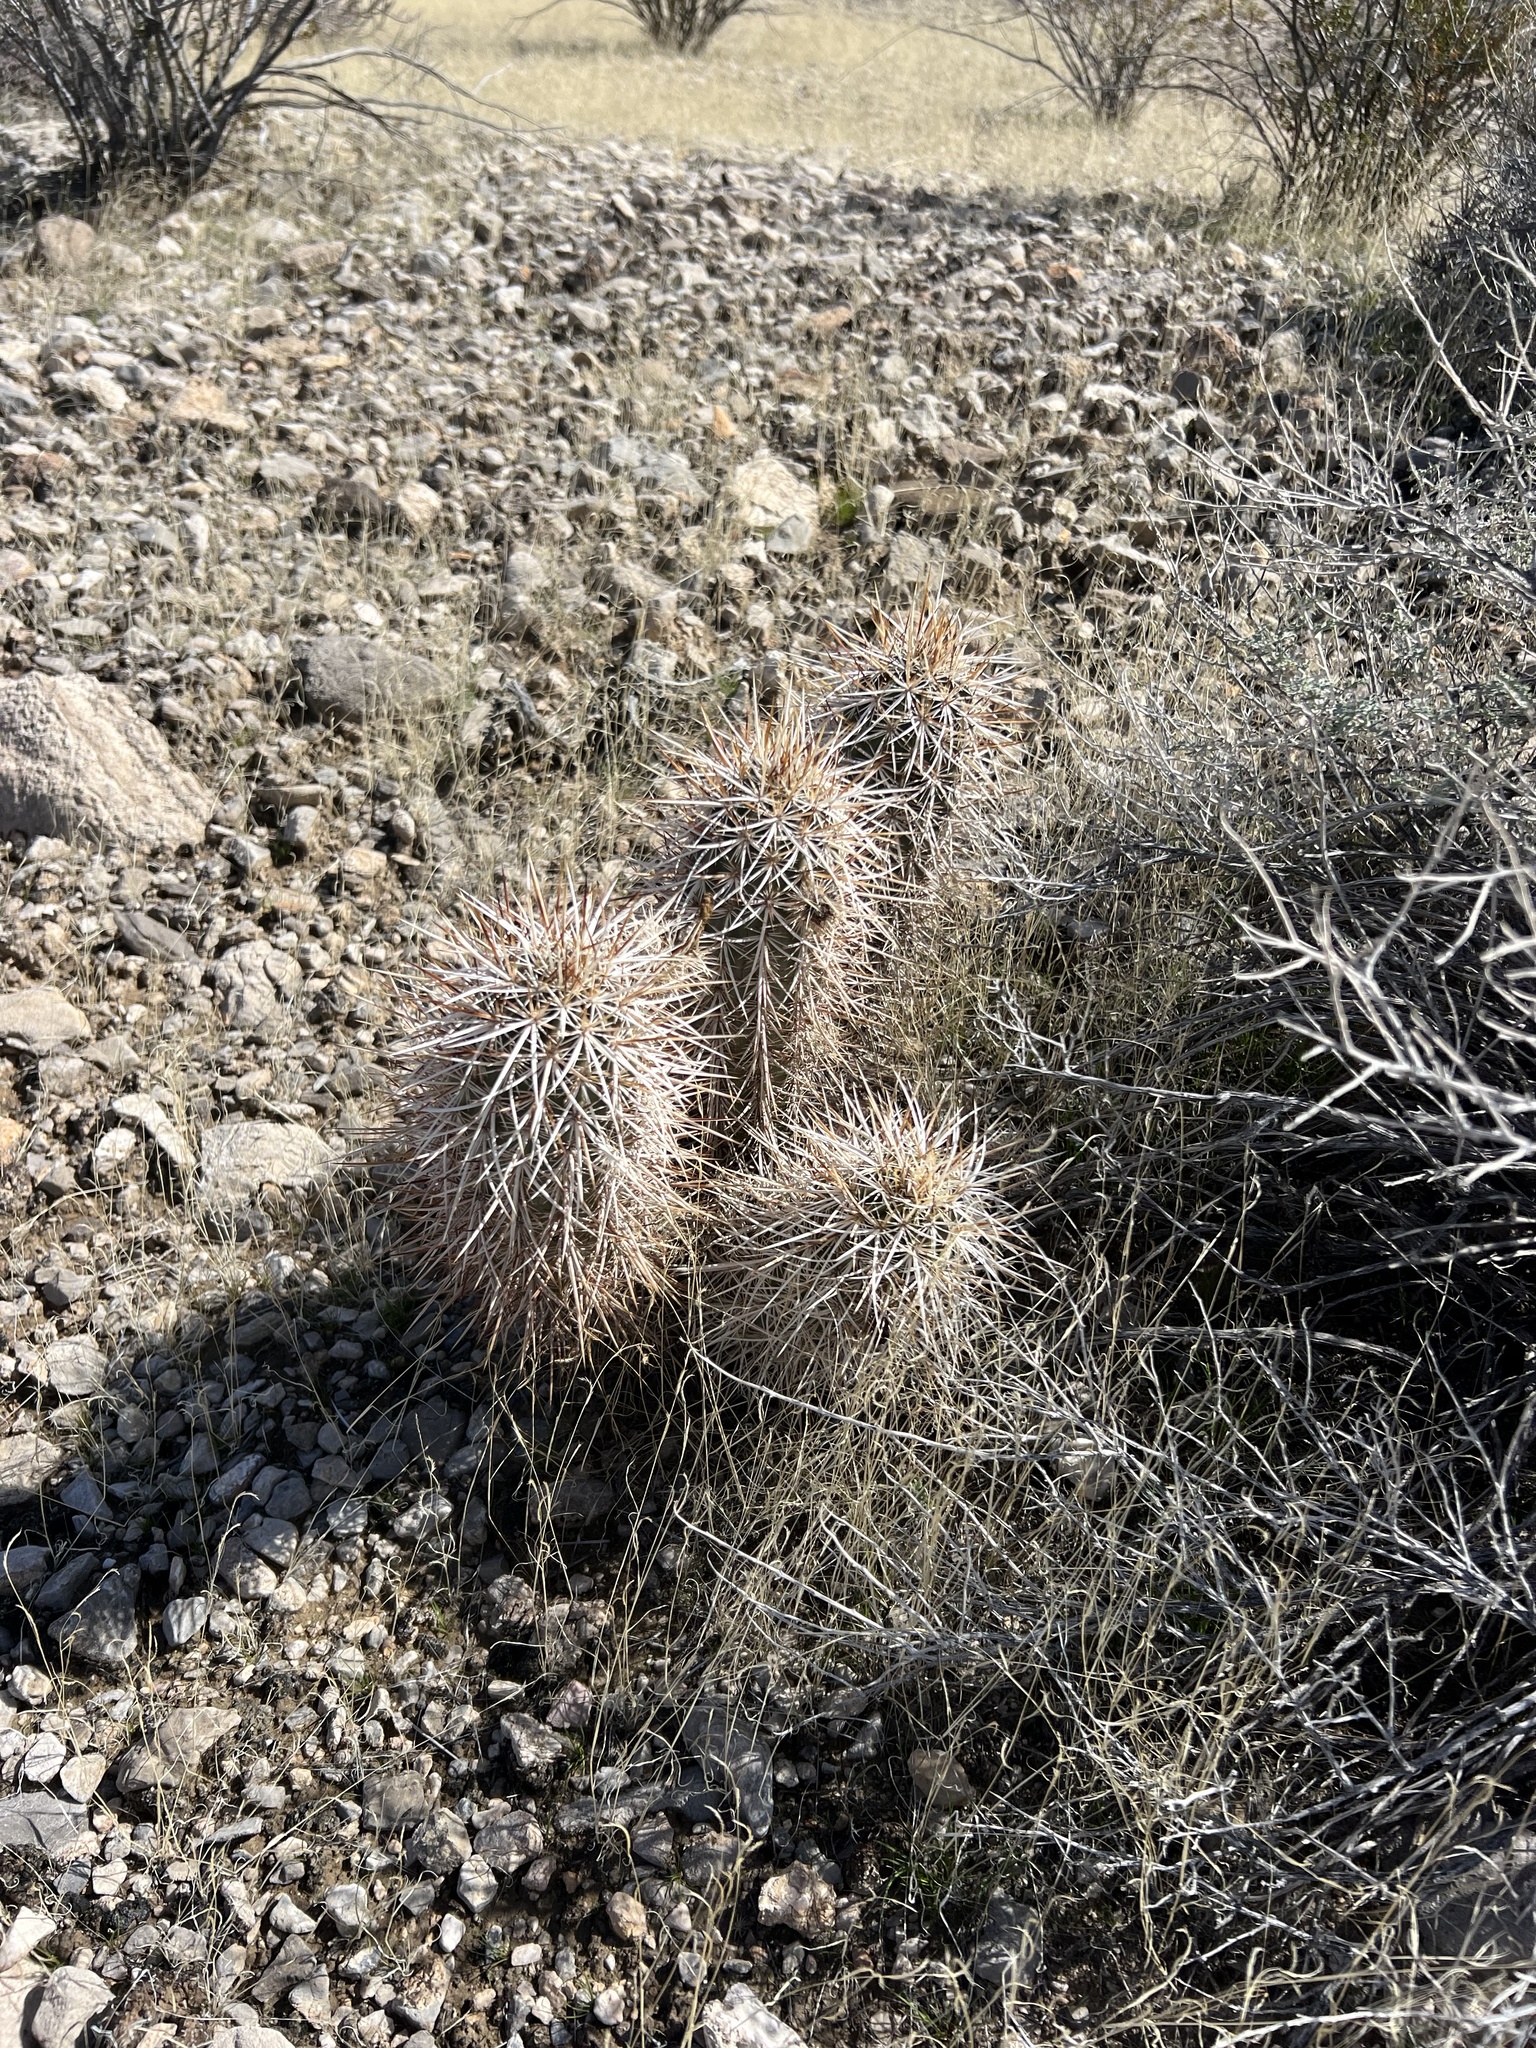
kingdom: Plantae
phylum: Tracheophyta
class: Magnoliopsida
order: Caryophyllales
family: Cactaceae
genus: Echinocereus
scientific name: Echinocereus engelmannii
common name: Engelmann's hedgehog cactus
